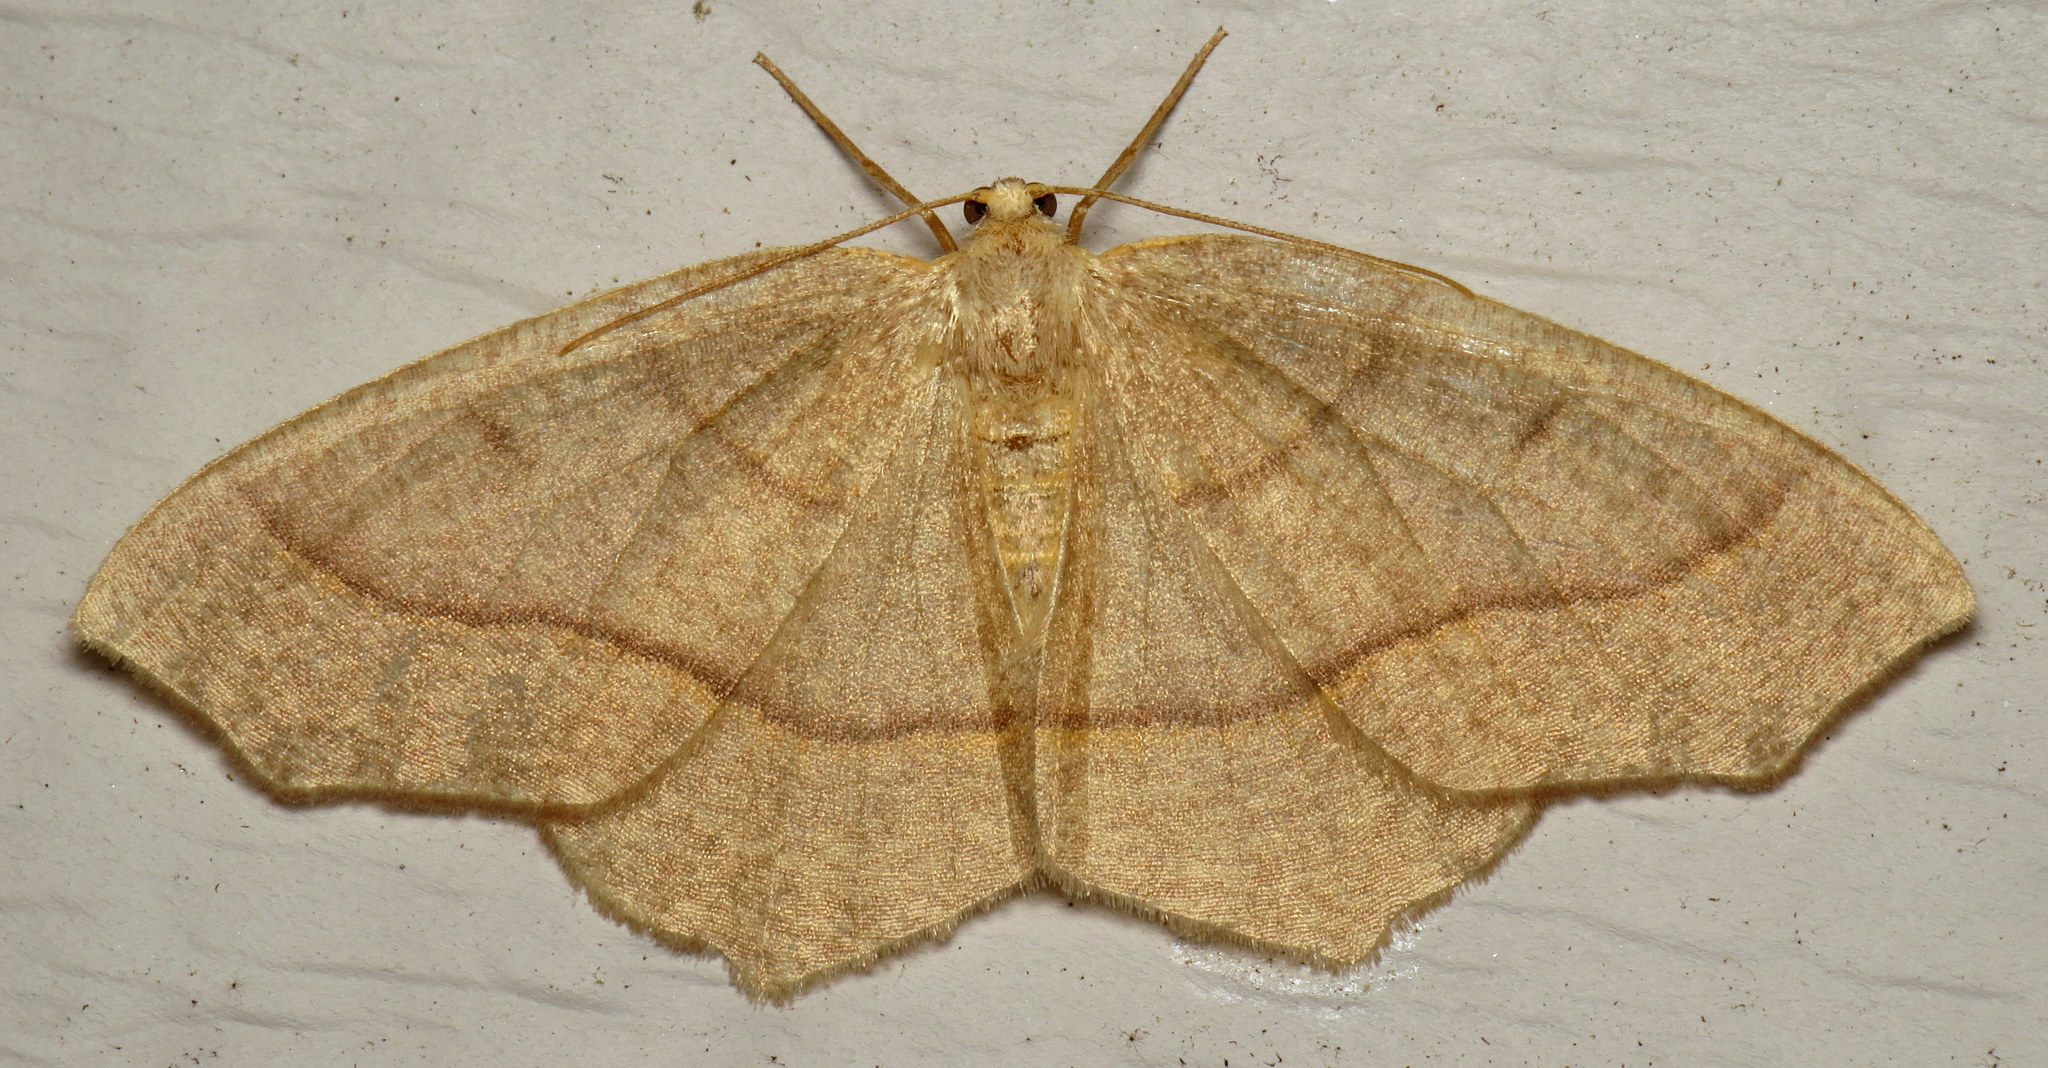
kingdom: Animalia
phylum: Arthropoda
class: Insecta
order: Lepidoptera
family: Geometridae
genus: Lambdina
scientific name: Lambdina fiscellaria
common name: Hemlock looper
